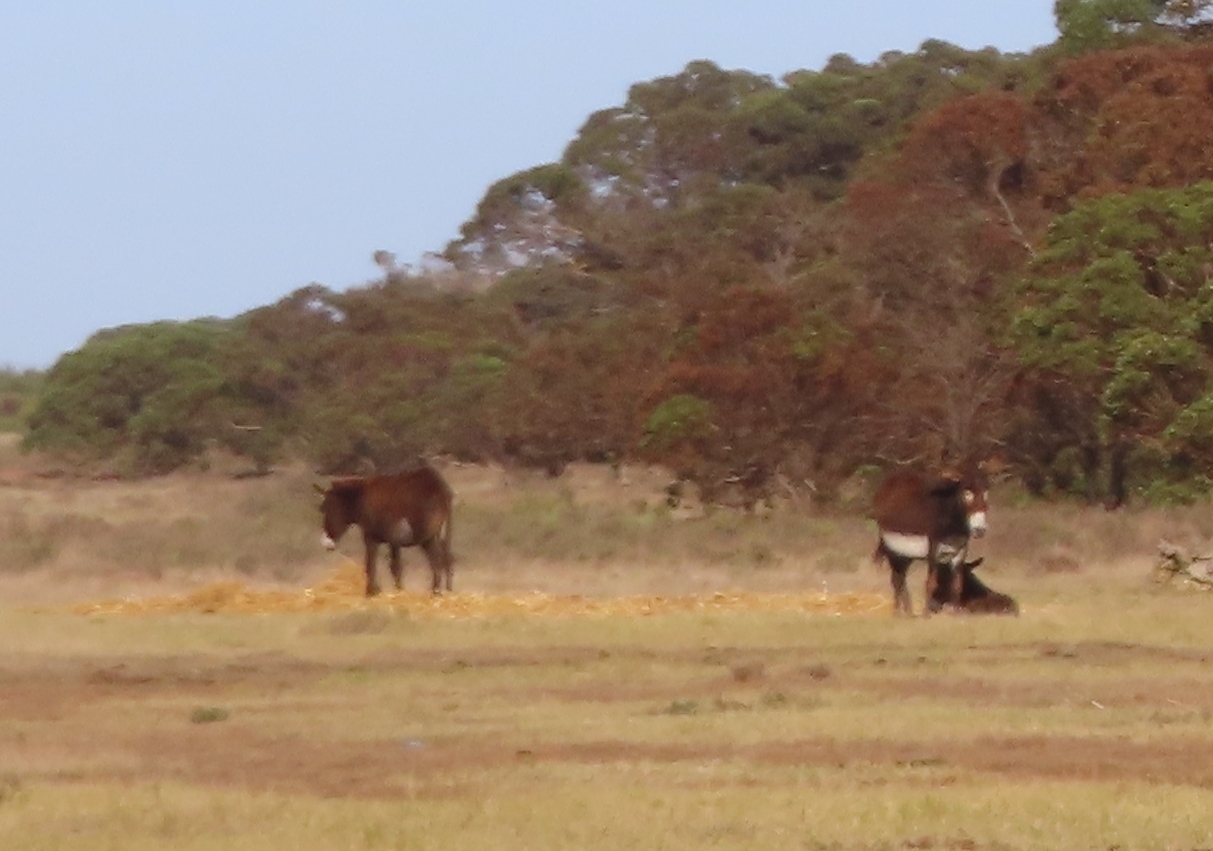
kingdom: Animalia
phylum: Chordata
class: Mammalia
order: Perissodactyla
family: Equidae
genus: Equus
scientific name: Equus asinus
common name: Ass
